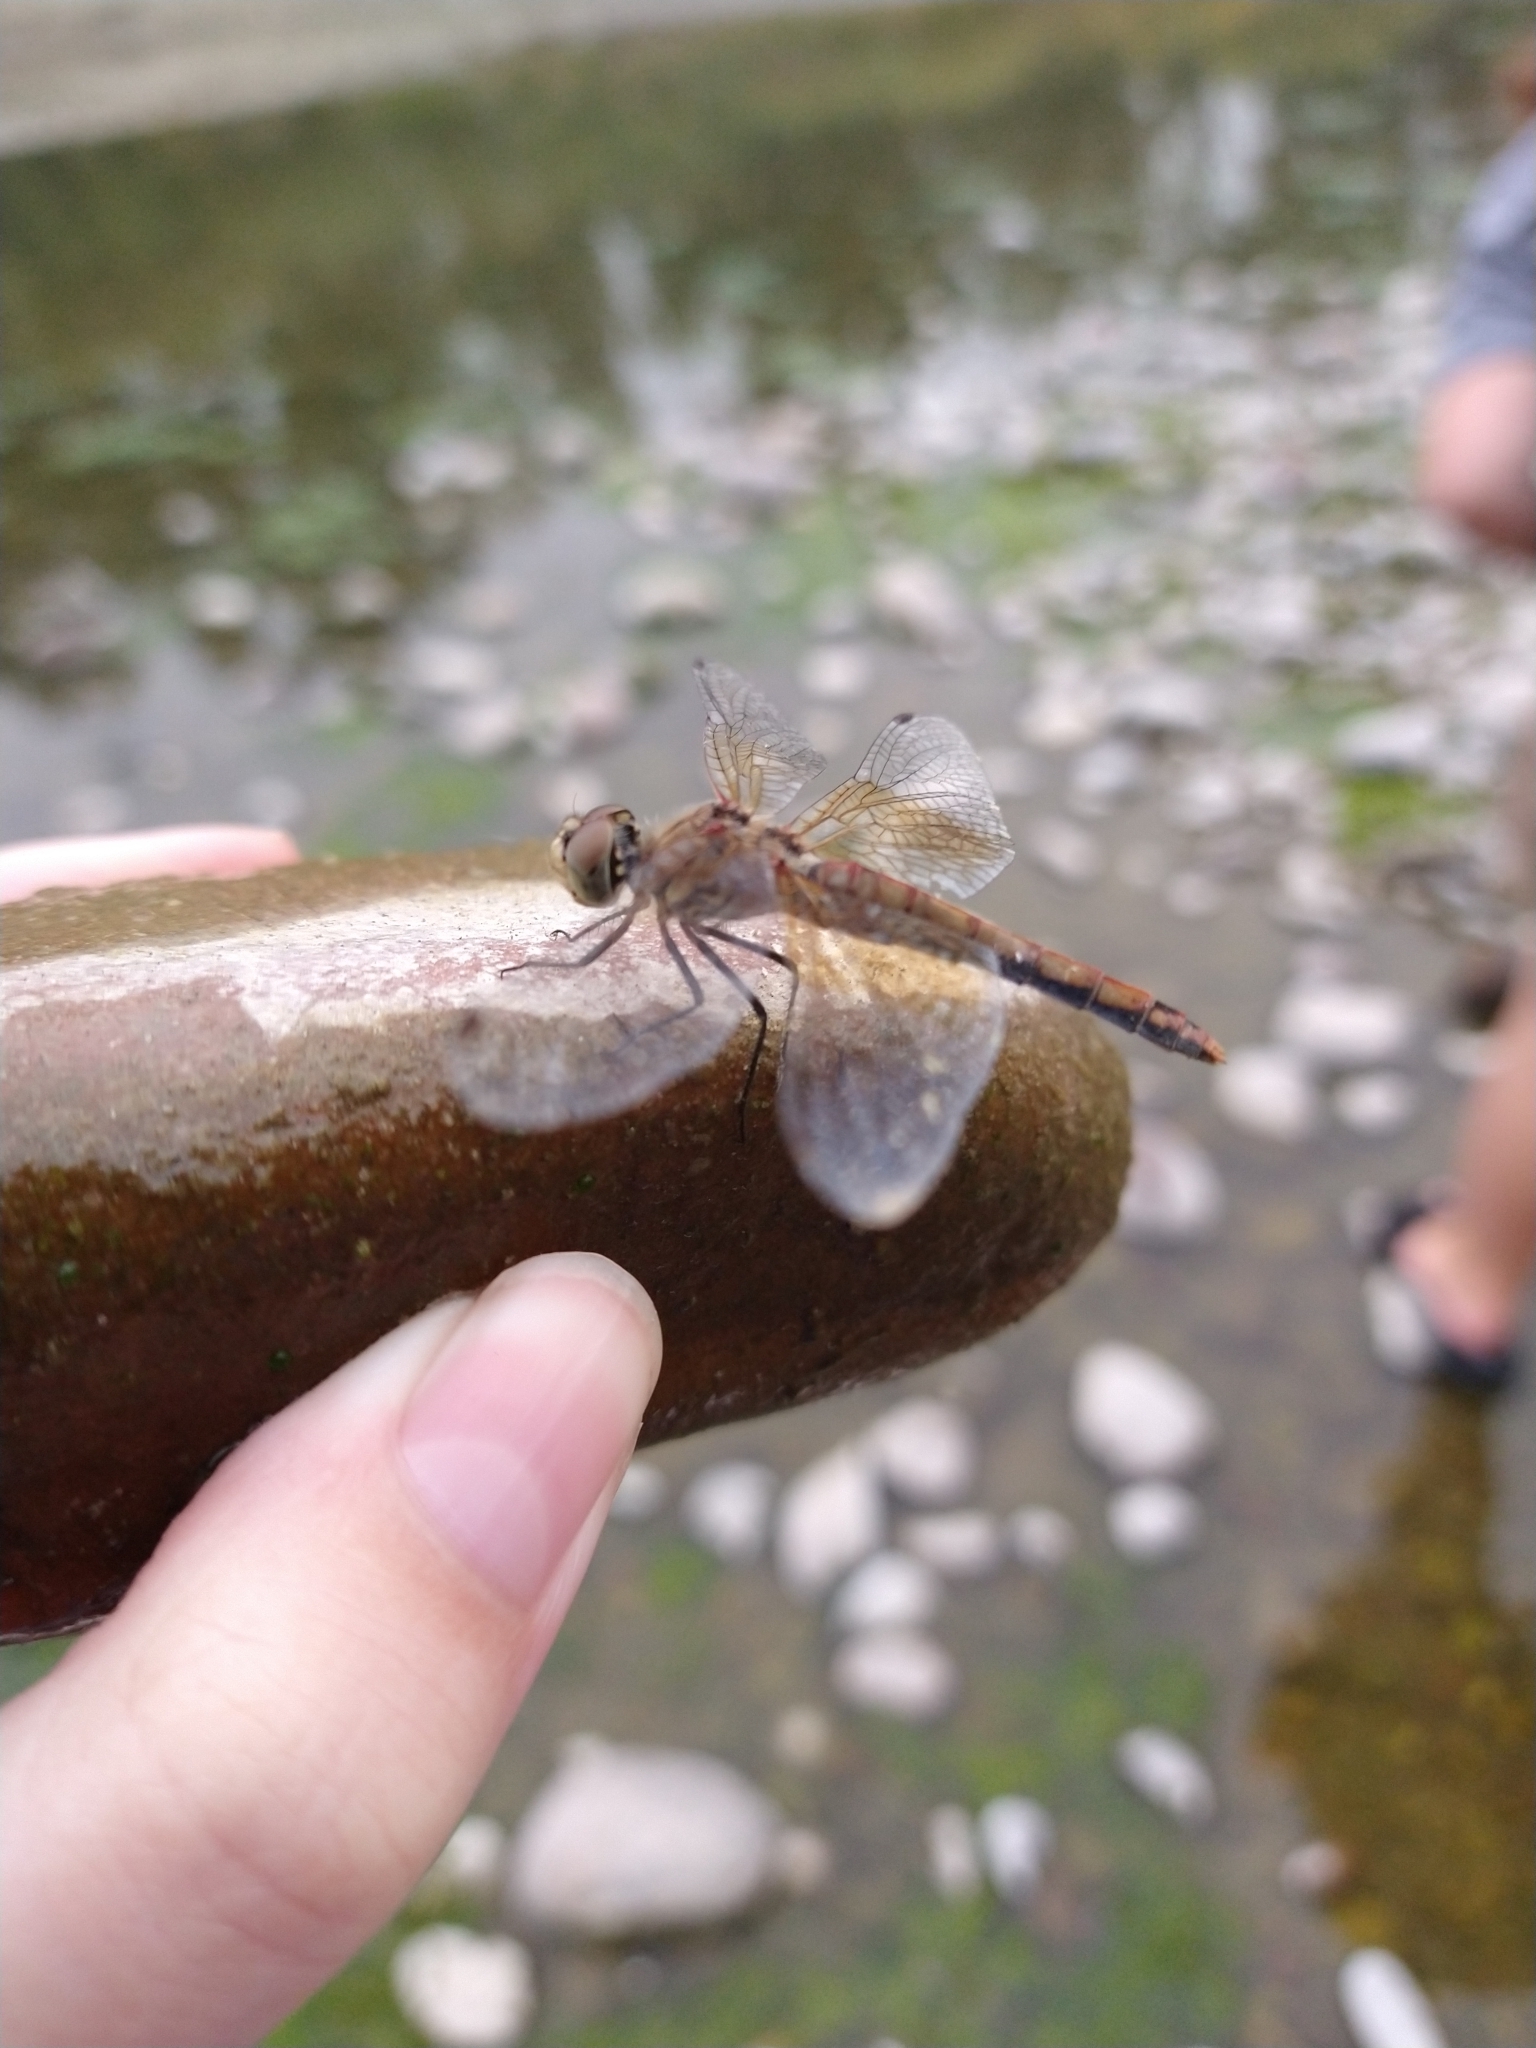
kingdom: Animalia
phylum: Arthropoda
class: Insecta
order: Odonata
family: Libellulidae
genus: Sympetrum
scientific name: Sympetrum semicinctum
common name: Band-winged meadowhawk
